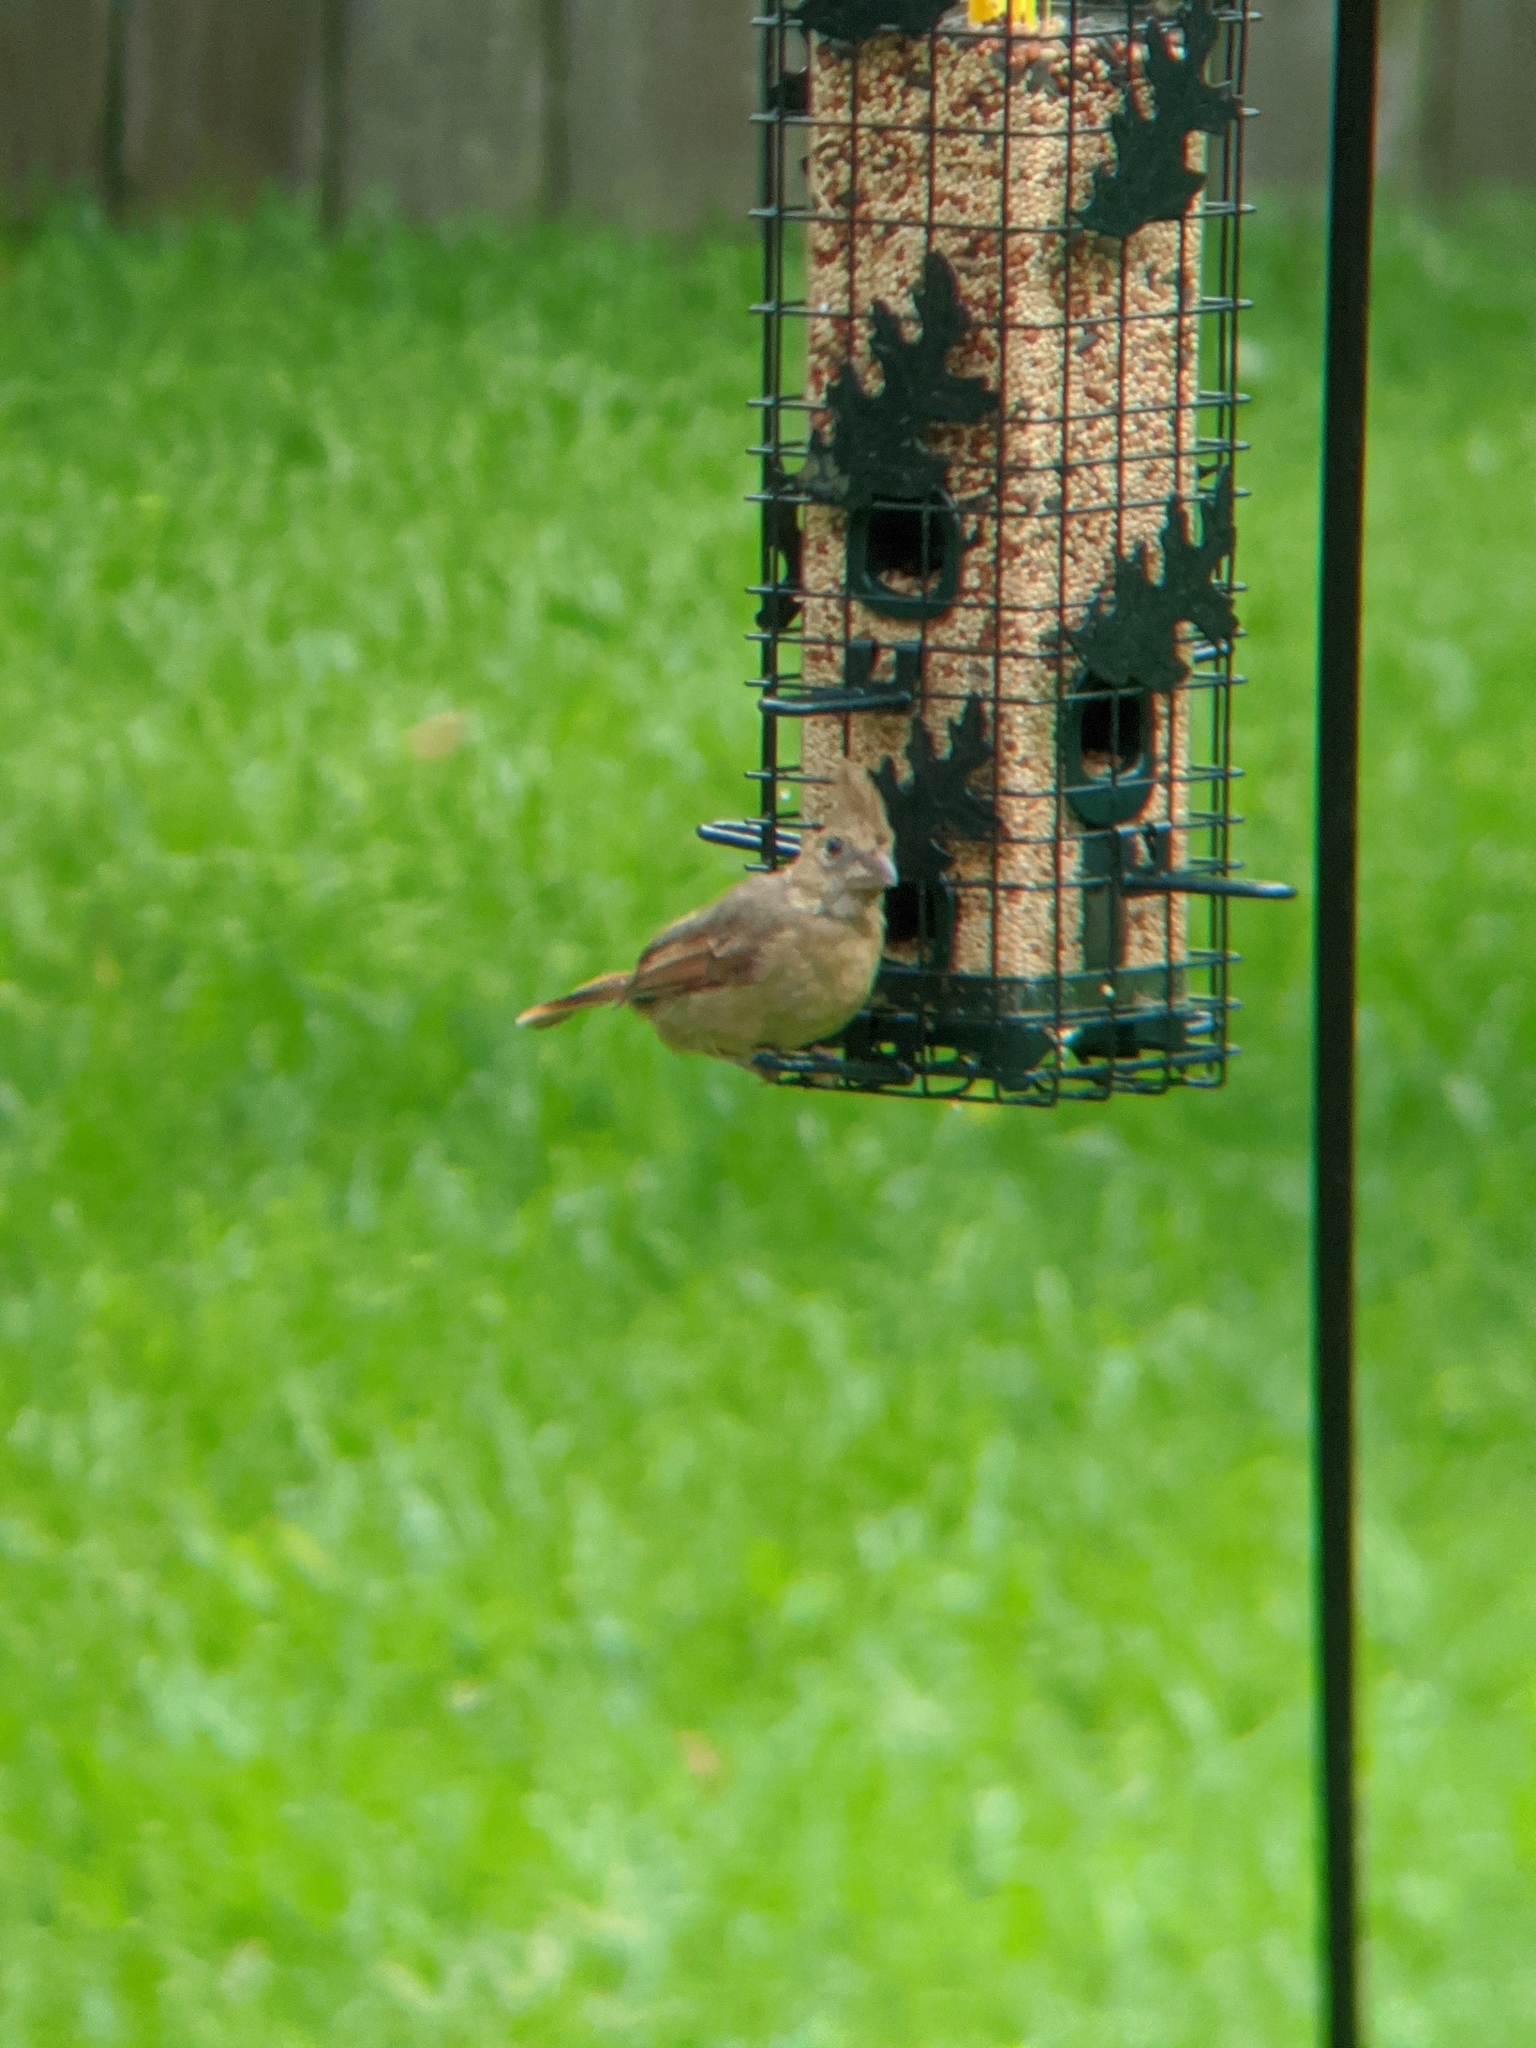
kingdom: Animalia
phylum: Chordata
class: Aves
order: Passeriformes
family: Cardinalidae
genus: Cardinalis
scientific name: Cardinalis cardinalis
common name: Northern cardinal
